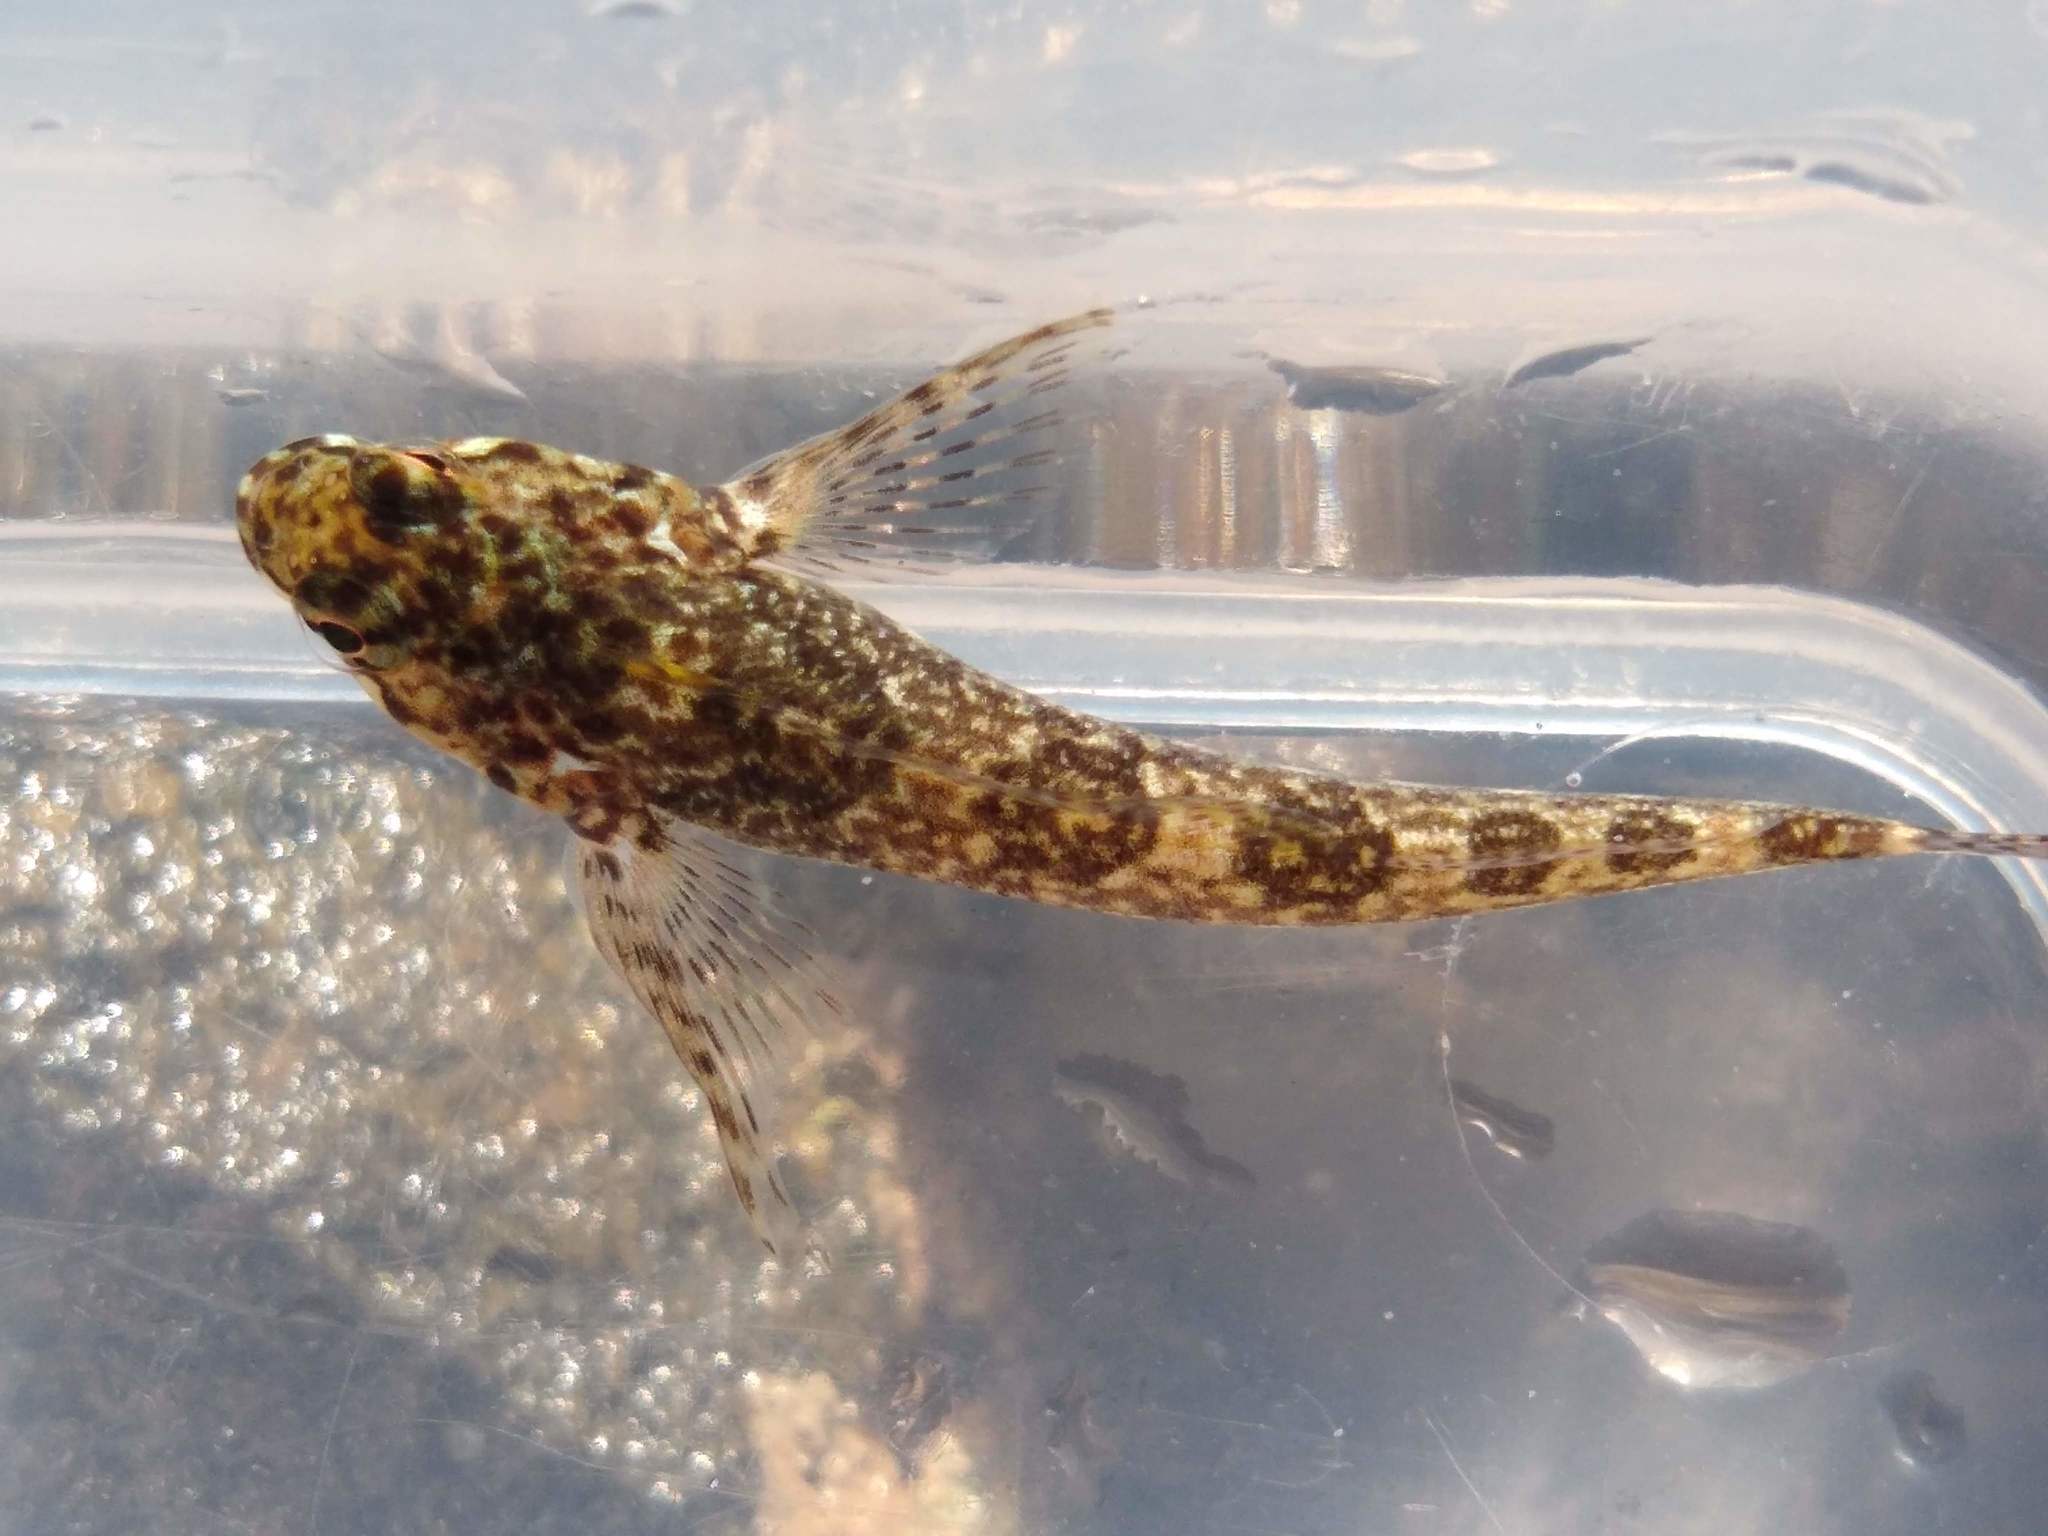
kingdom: Animalia
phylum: Chordata
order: Perciformes
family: Tripterygiidae
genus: Bellapiscis
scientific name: Bellapiscis medius
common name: Twister
